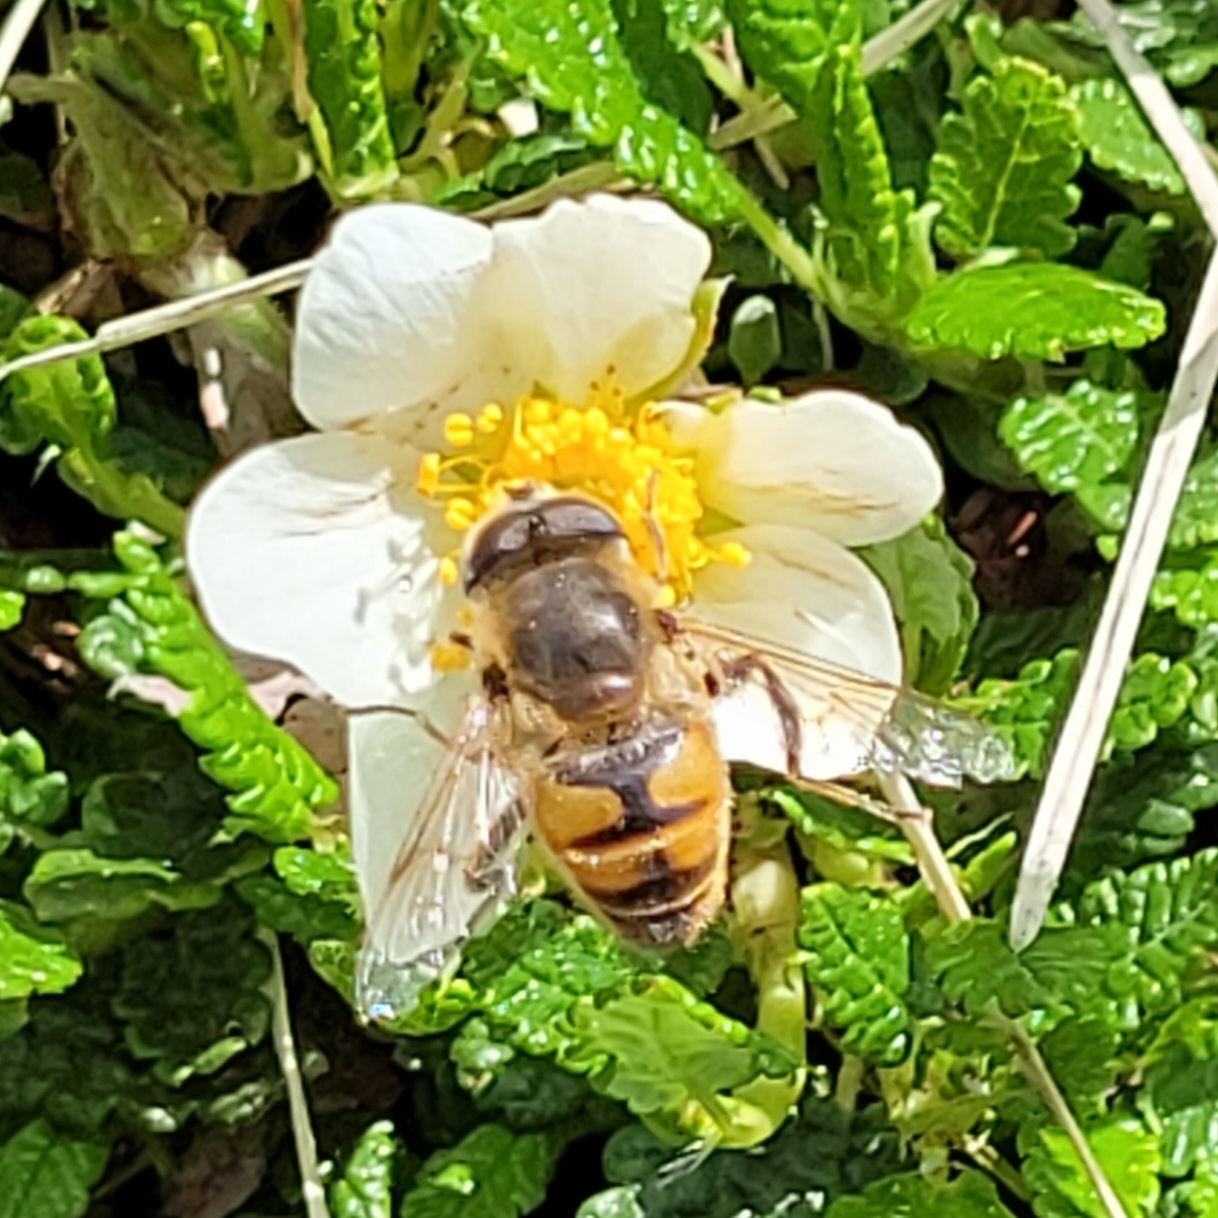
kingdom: Animalia
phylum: Arthropoda
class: Insecta
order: Diptera
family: Syrphidae
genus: Eristalis
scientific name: Eristalis tenax
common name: Drone fly
